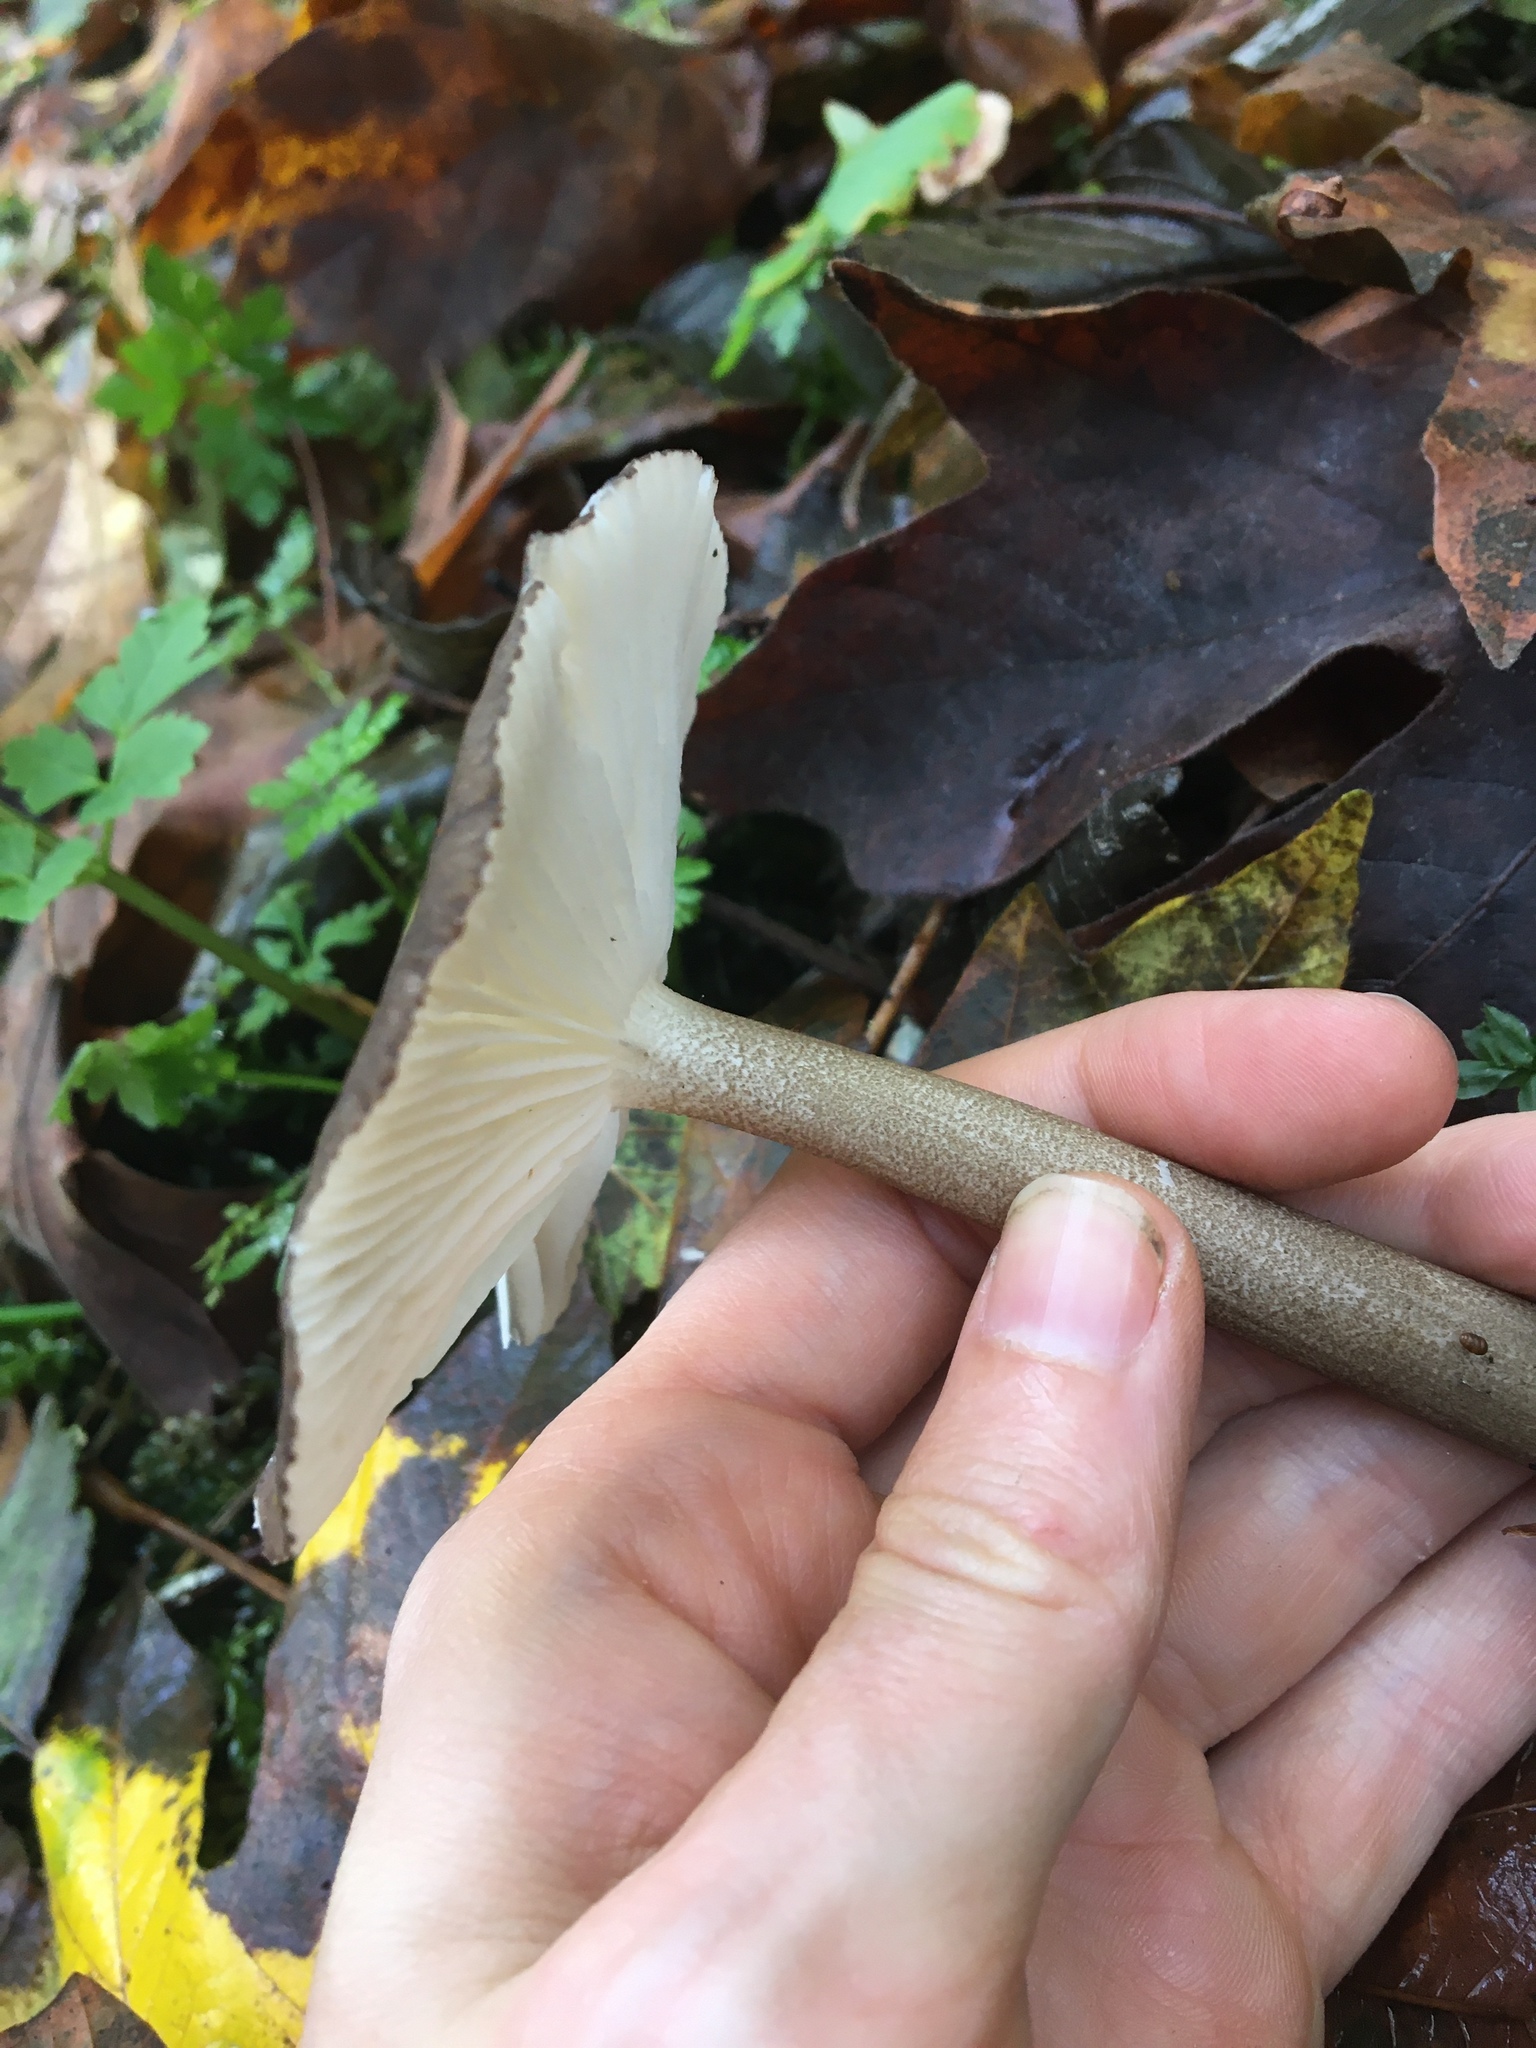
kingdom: Fungi
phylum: Basidiomycota
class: Agaricomycetes
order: Agaricales
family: Marasmiaceae
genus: Gerronema
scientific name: Gerronema atrialbum
